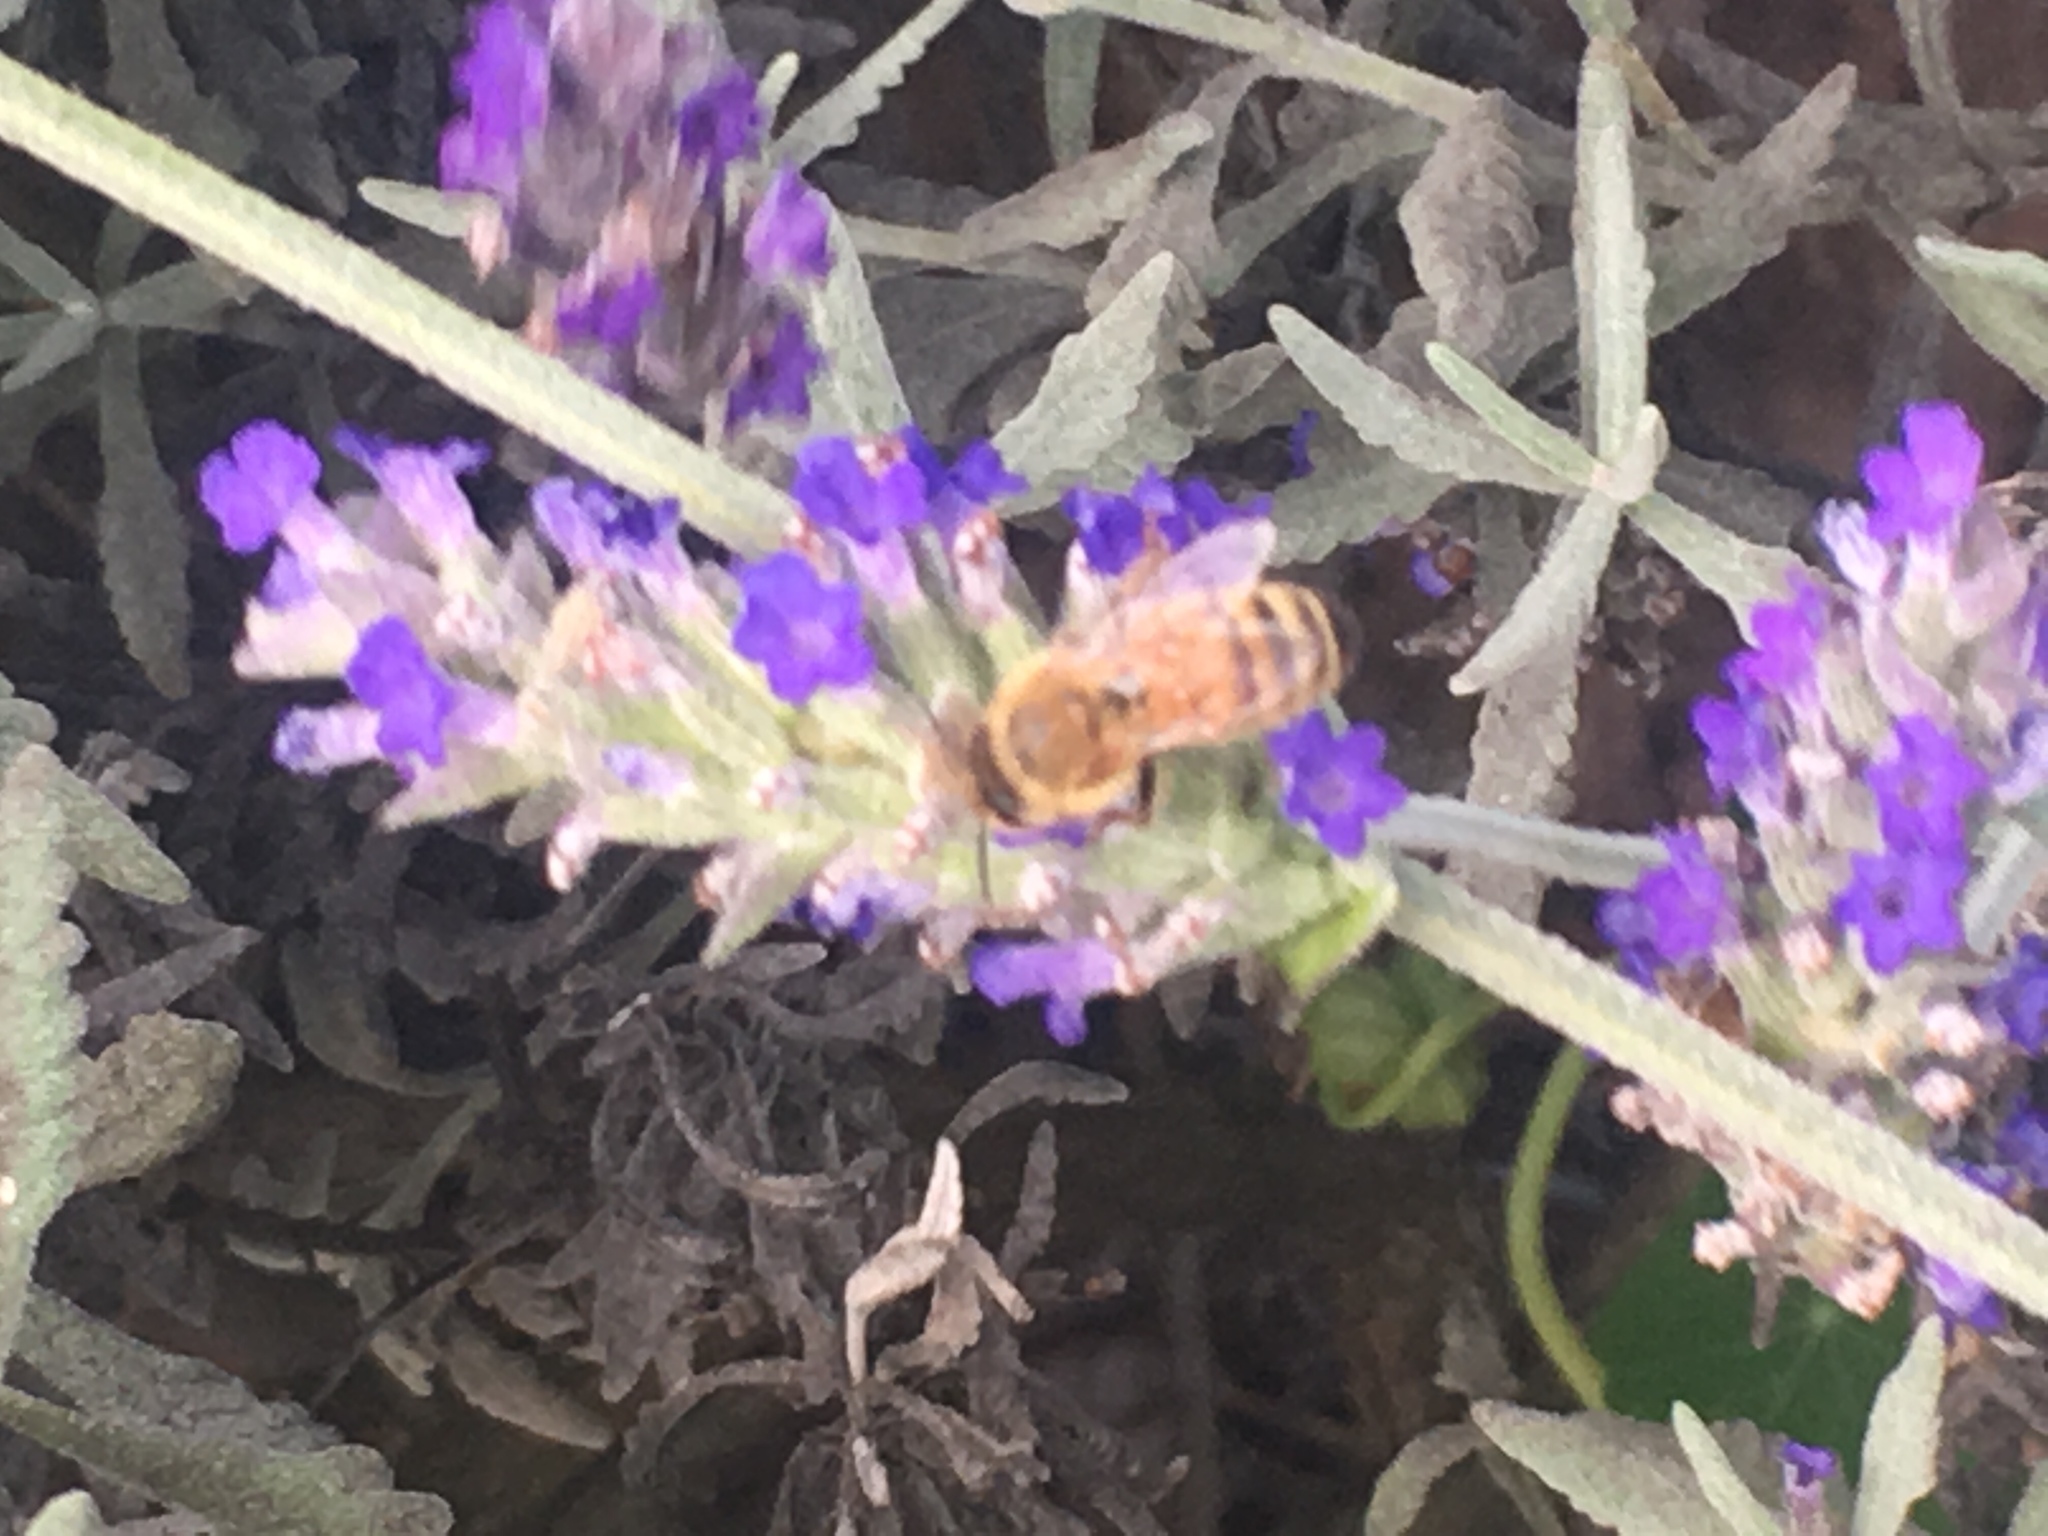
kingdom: Animalia
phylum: Arthropoda
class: Insecta
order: Hymenoptera
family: Apidae
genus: Apis
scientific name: Apis mellifera
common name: Honey bee
